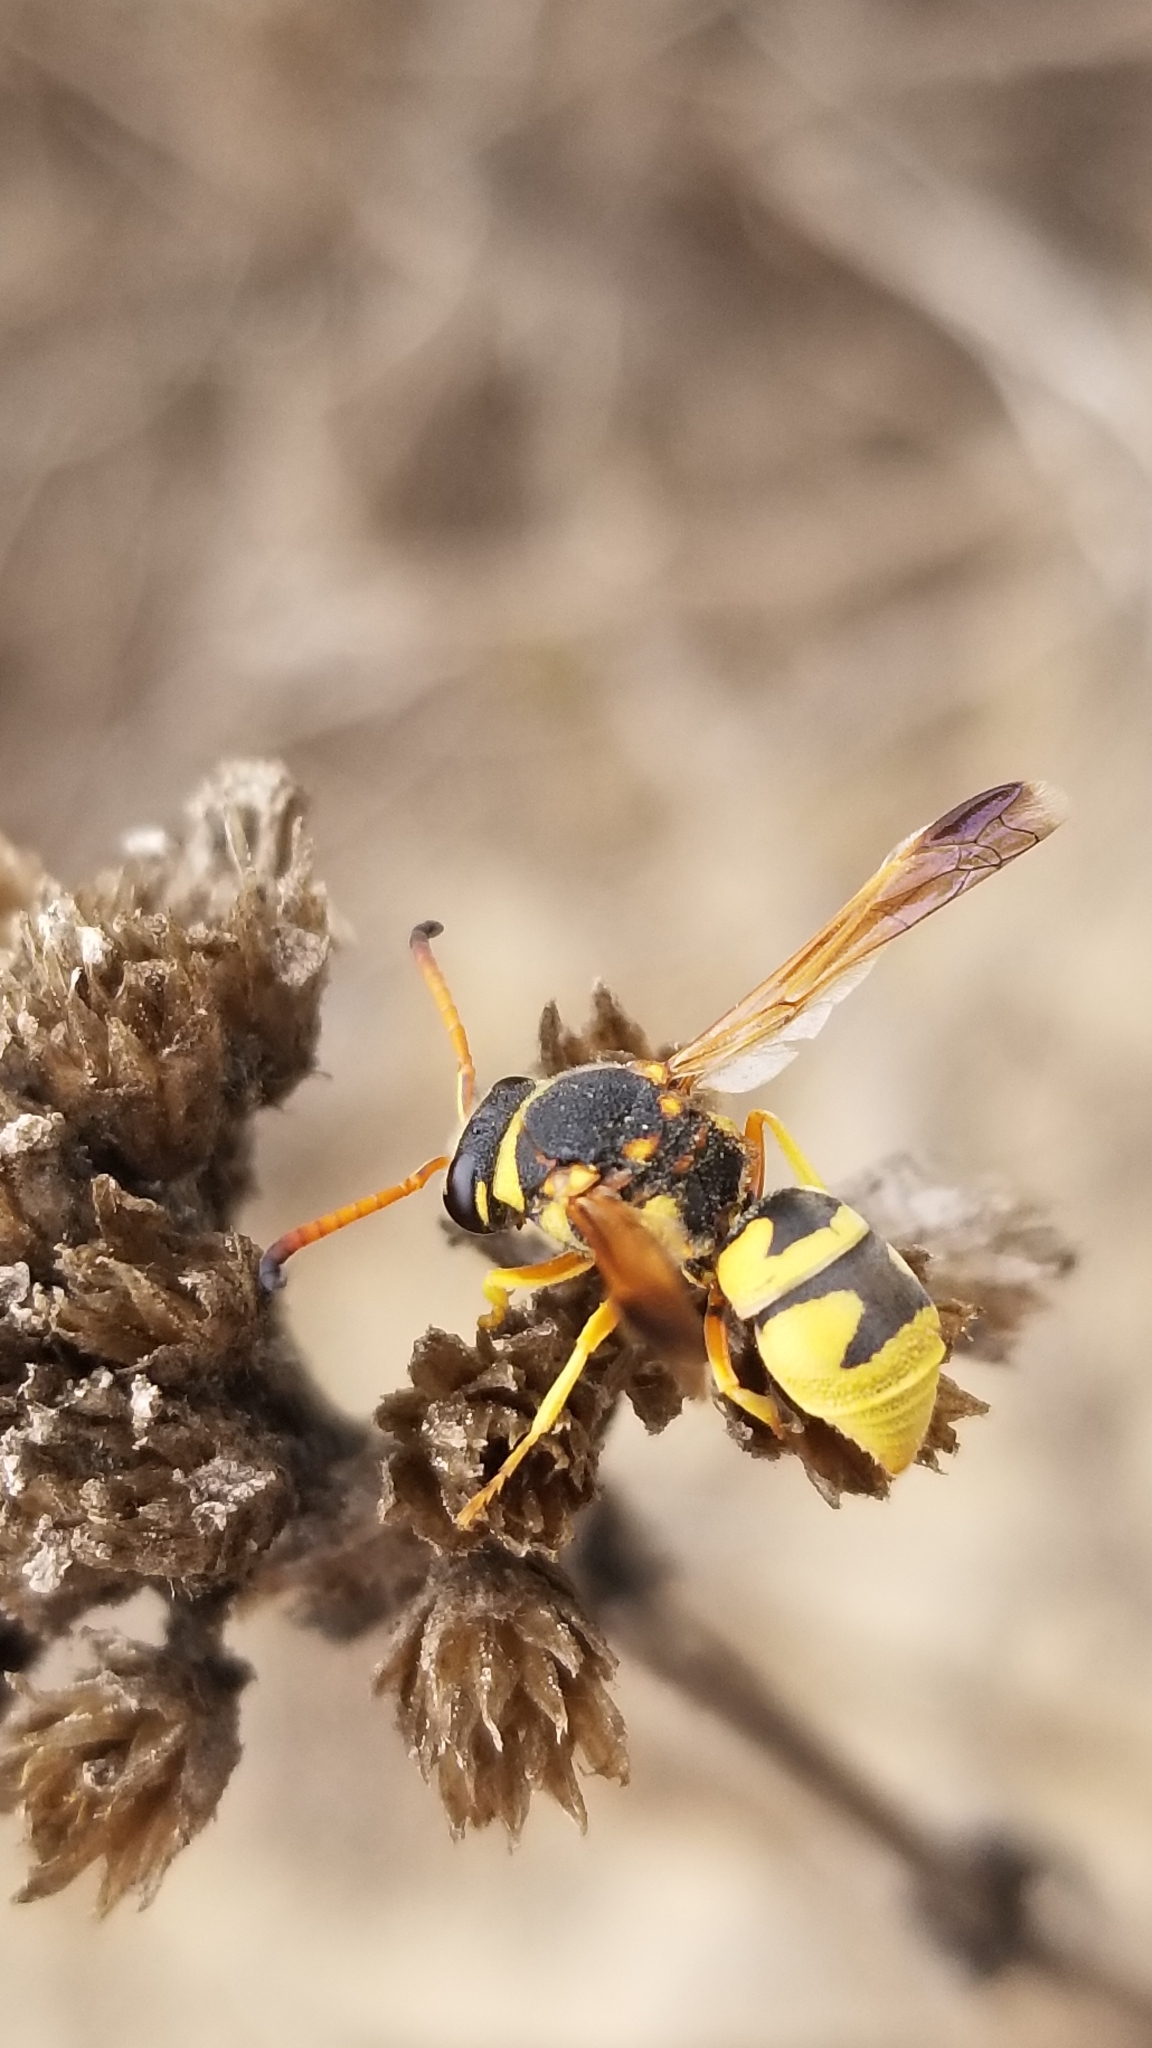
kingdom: Animalia
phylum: Arthropoda
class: Insecta
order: Hymenoptera
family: Eumenidae
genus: Euodynerus
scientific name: Euodynerus auranus
